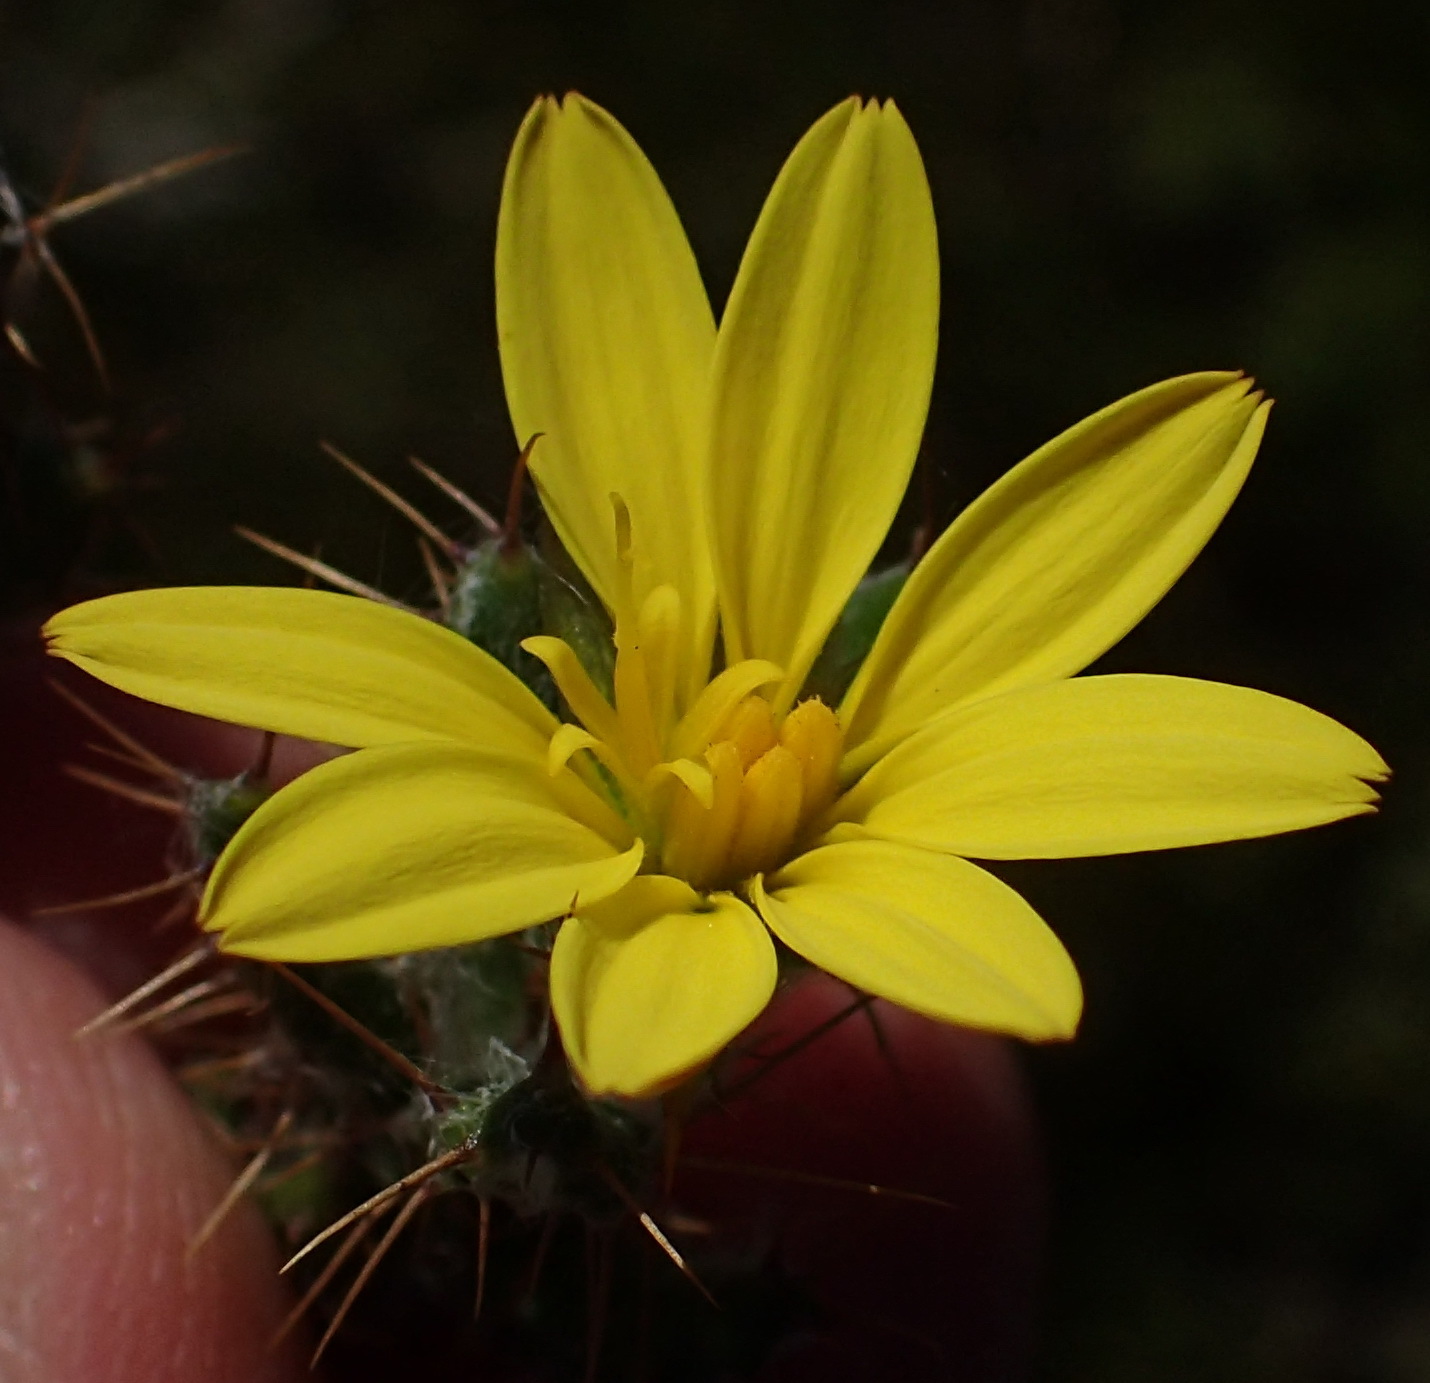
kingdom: Plantae
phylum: Tracheophyta
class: Magnoliopsida
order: Asterales
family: Asteraceae
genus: Cullumia
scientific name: Cullumia aculeata
